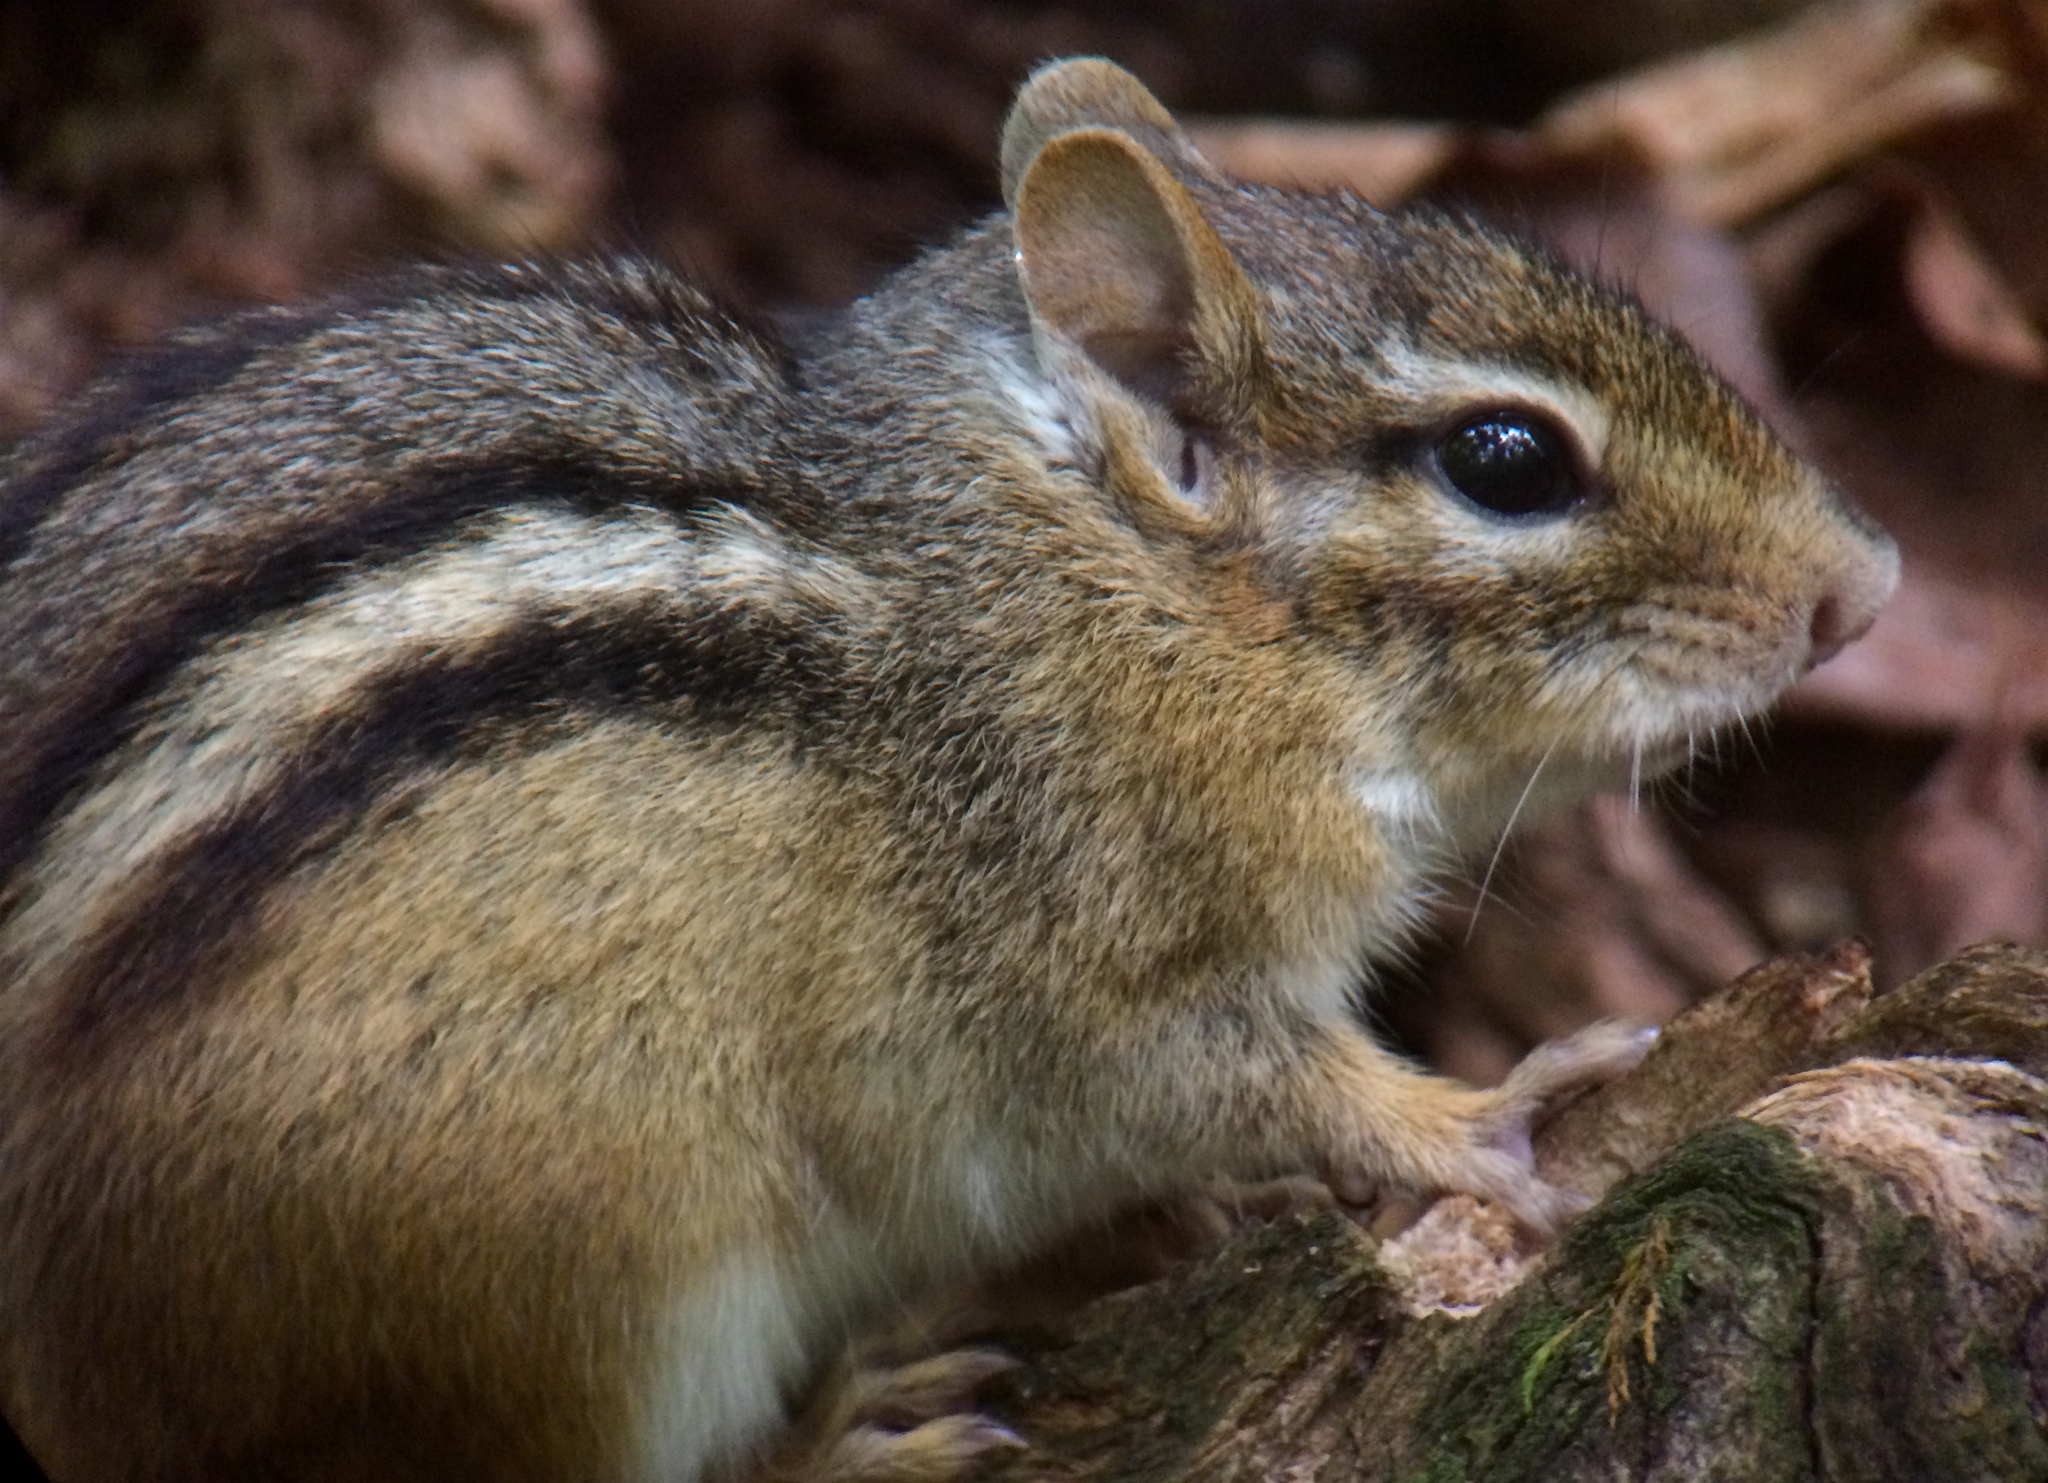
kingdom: Animalia
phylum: Chordata
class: Mammalia
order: Rodentia
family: Sciuridae
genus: Tamias
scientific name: Tamias striatus
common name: Eastern chipmunk
